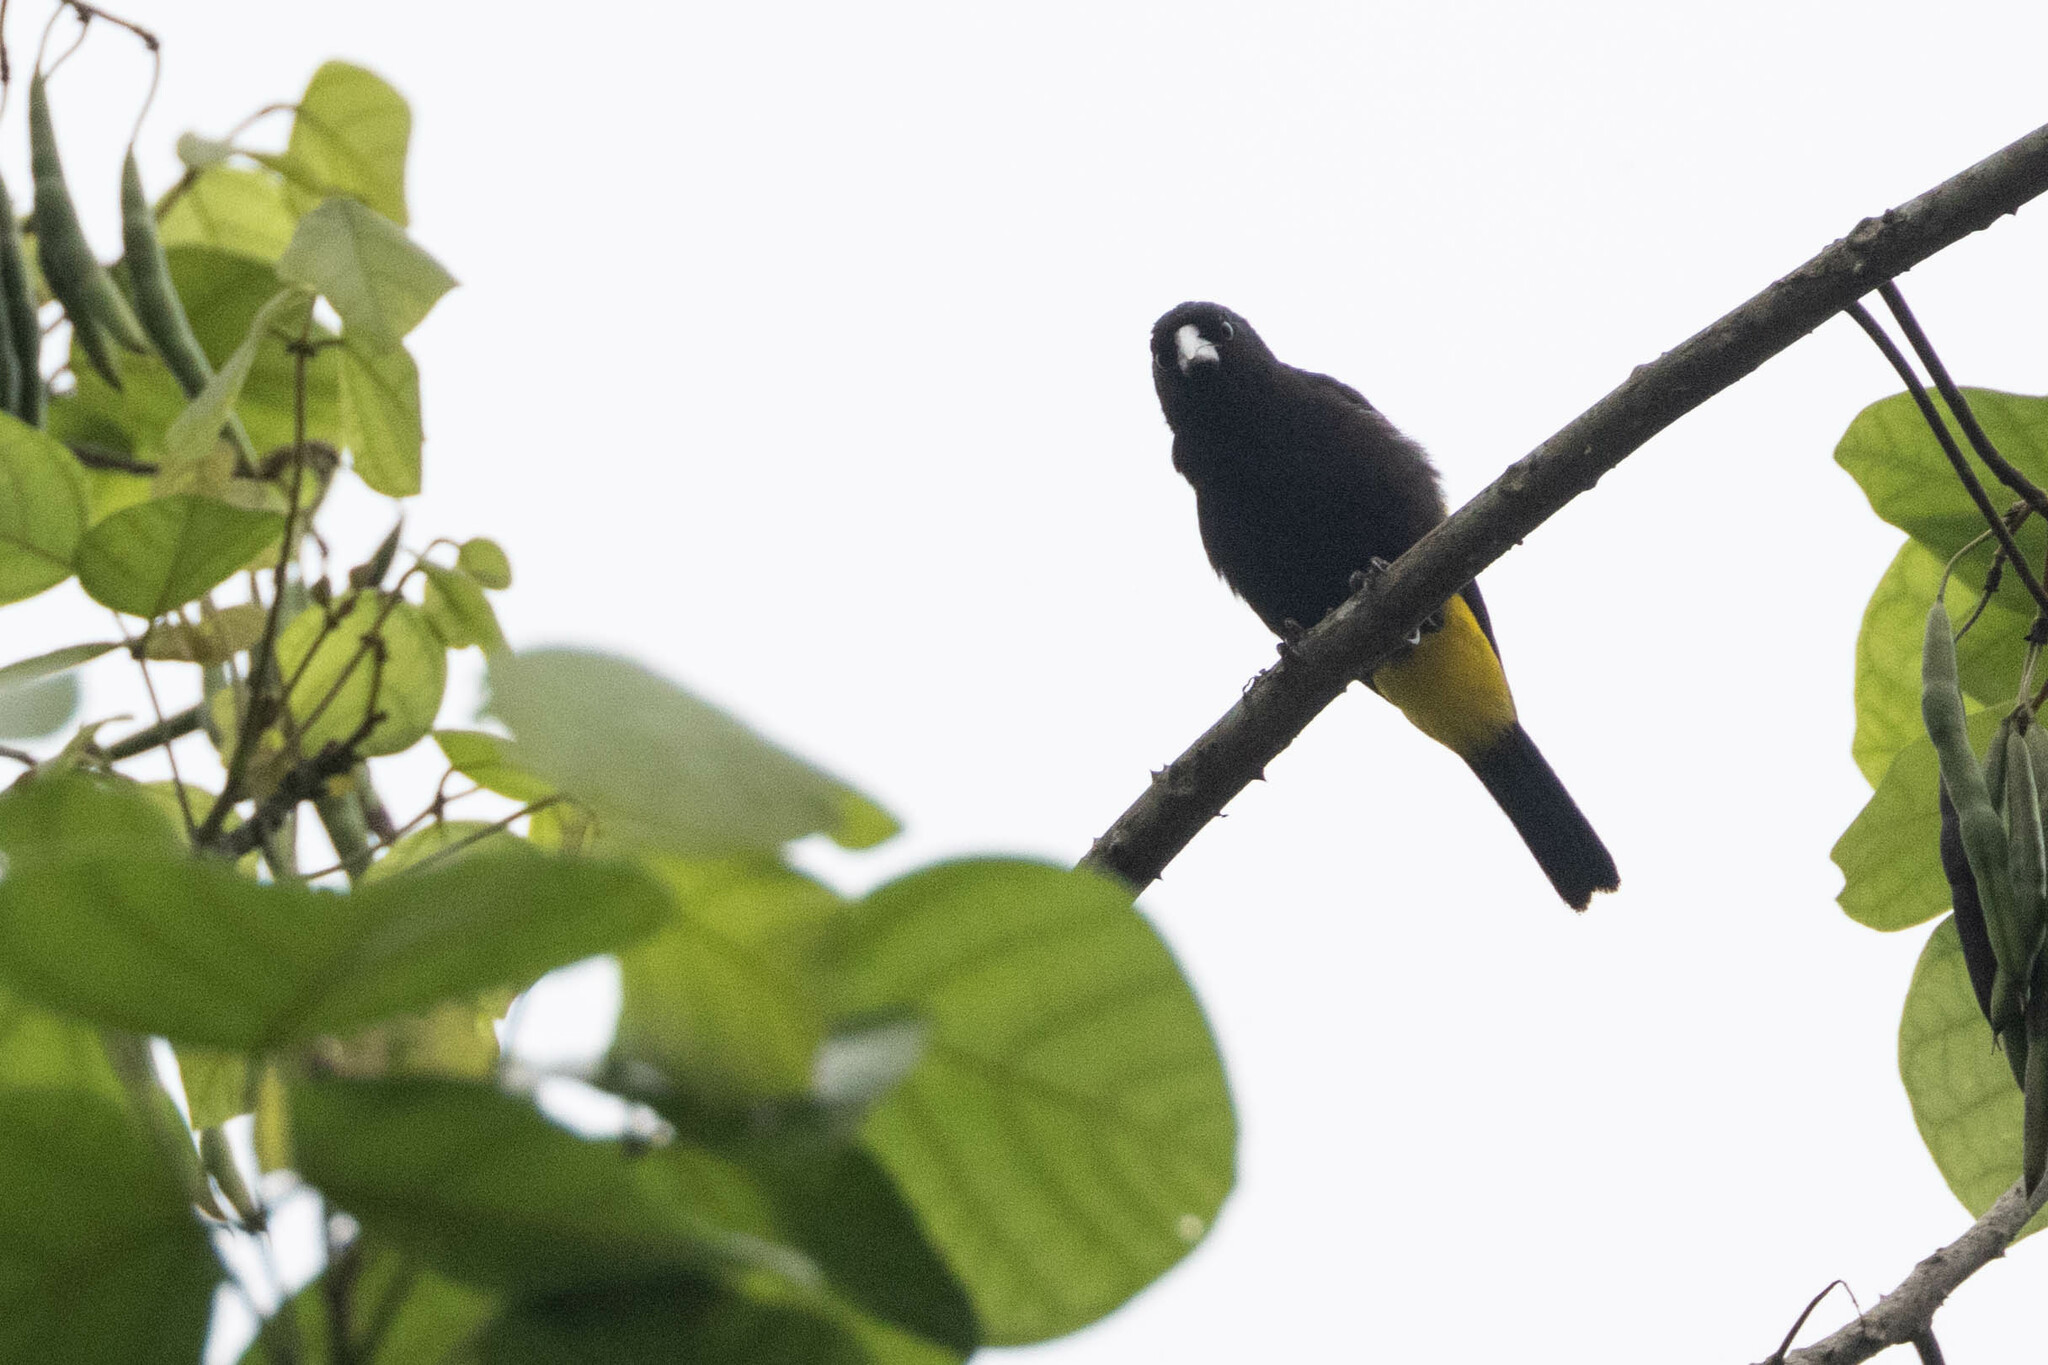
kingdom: Animalia
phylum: Chordata
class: Aves
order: Passeriformes
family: Icteridae
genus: Cacicus
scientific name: Cacicus cela
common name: Yellow-rumped cacique
